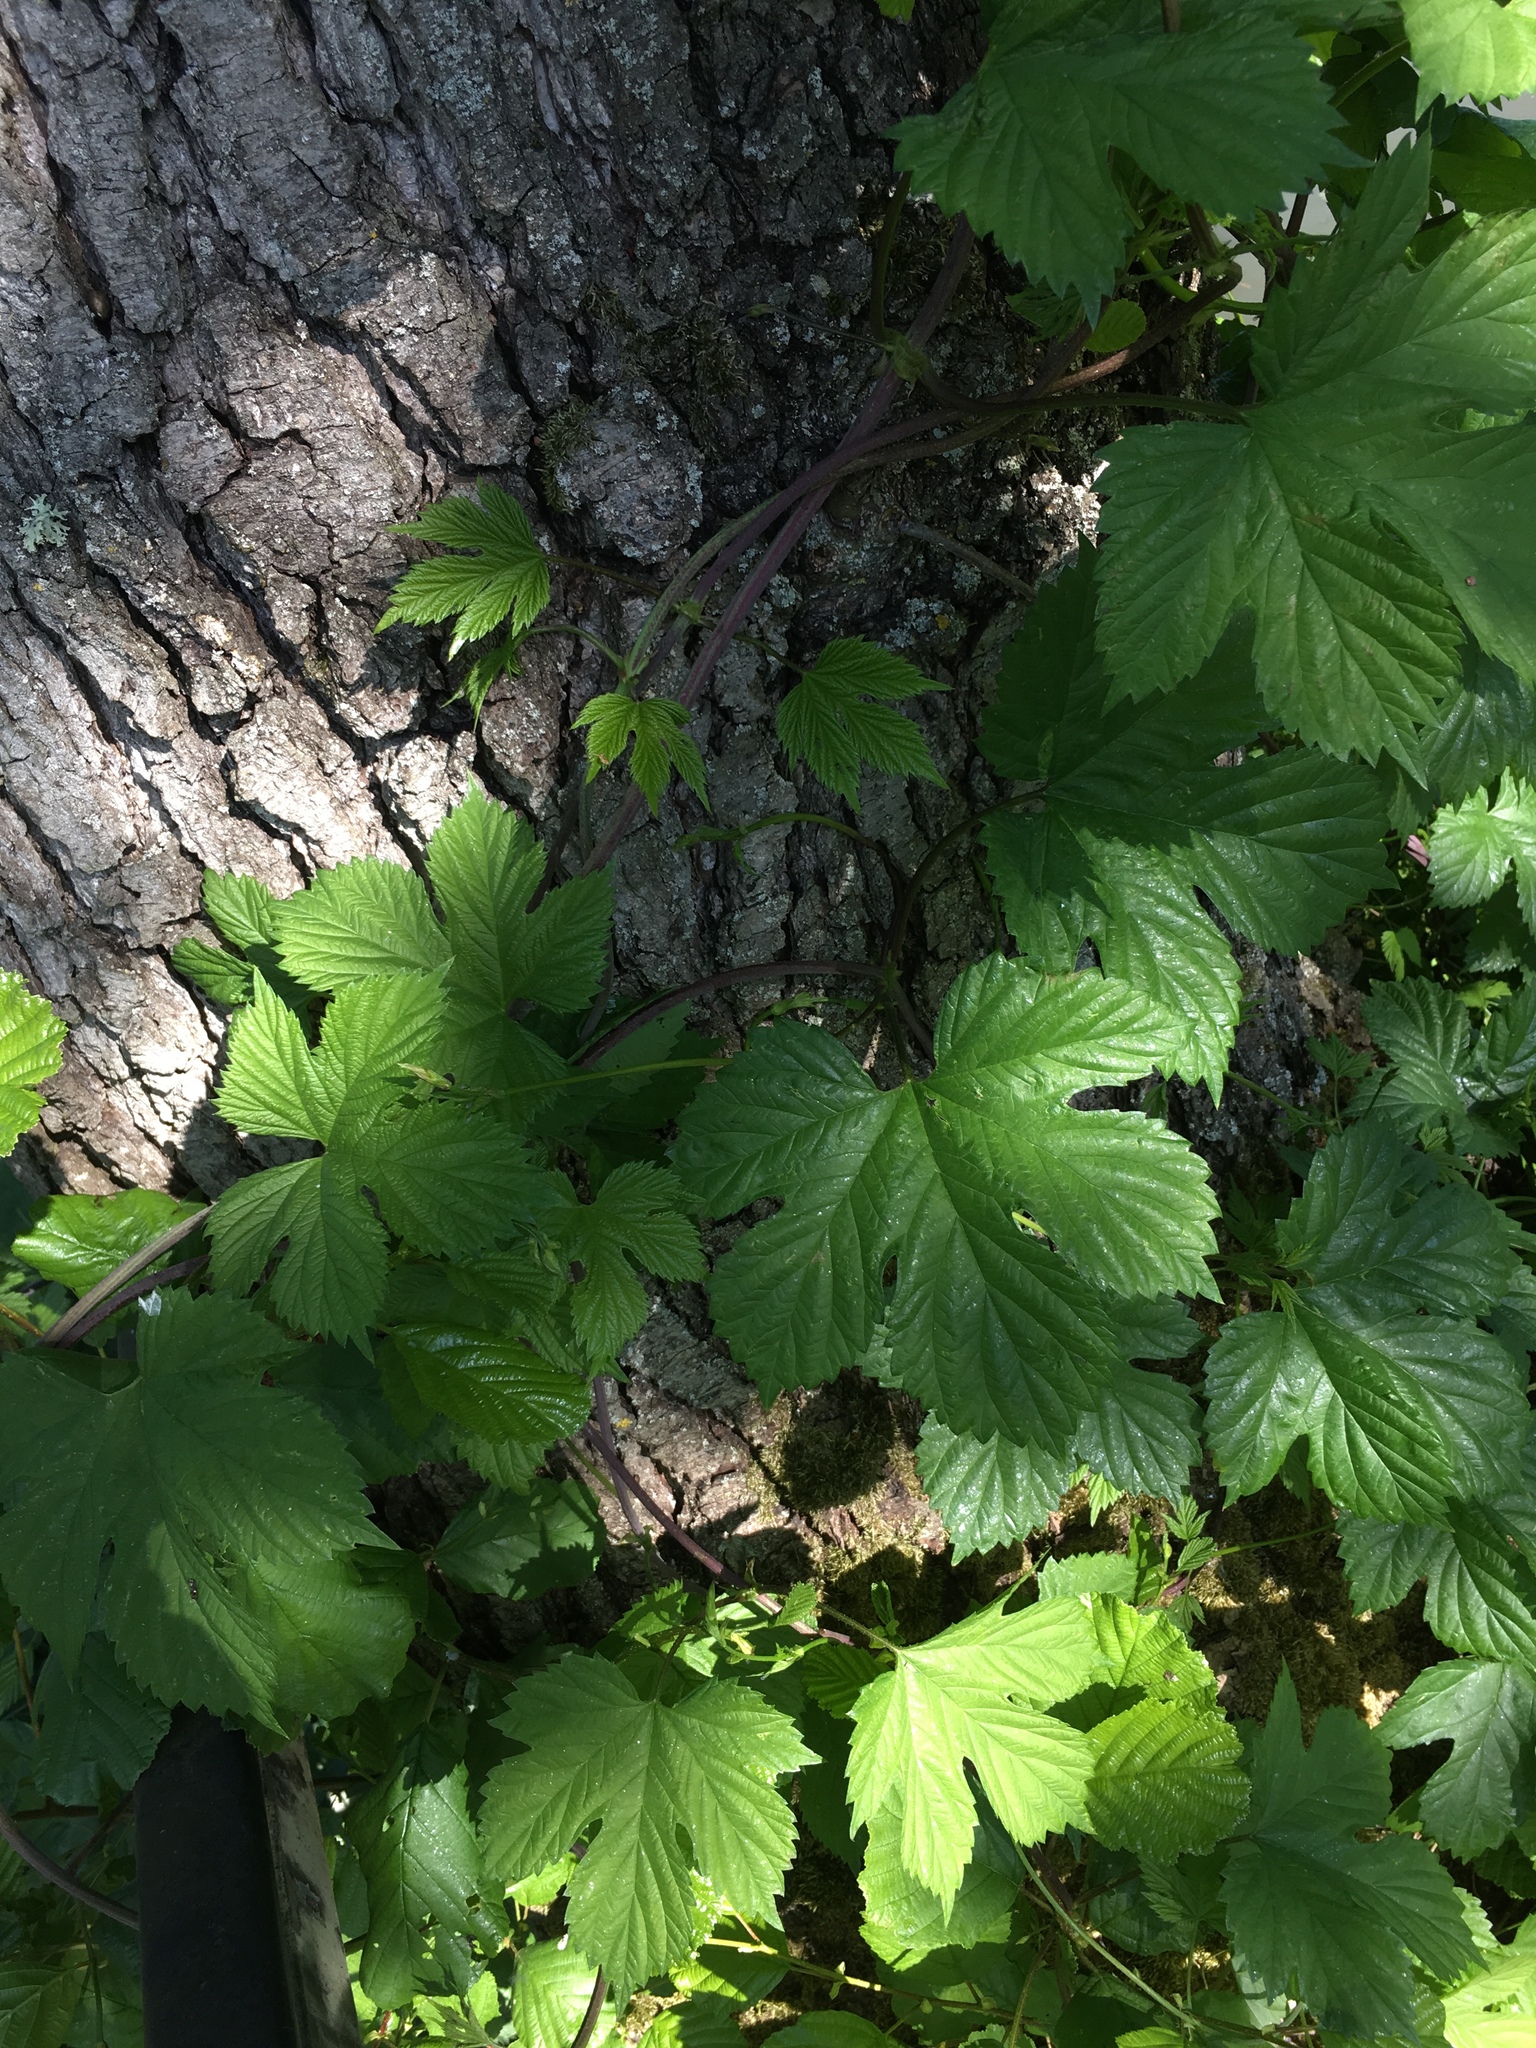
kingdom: Plantae
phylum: Tracheophyta
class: Magnoliopsida
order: Rosales
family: Cannabaceae
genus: Humulus
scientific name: Humulus lupulus
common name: Hop
